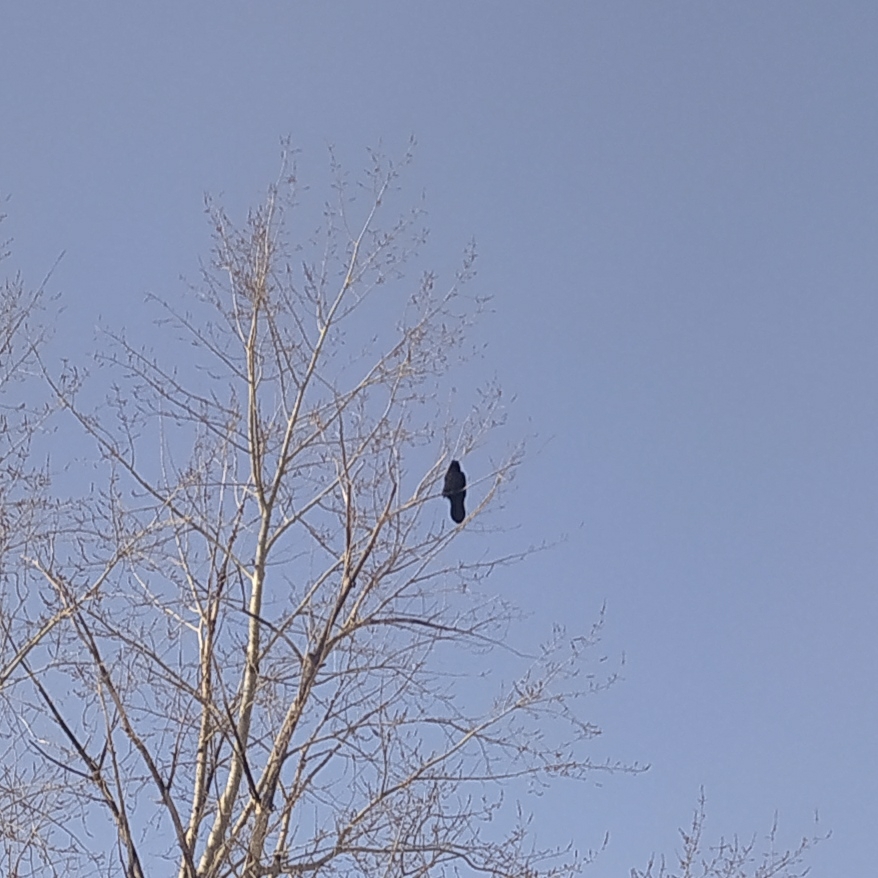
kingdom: Animalia
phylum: Chordata
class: Aves
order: Passeriformes
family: Corvidae
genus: Corvus
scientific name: Corvus corax
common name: Common raven
